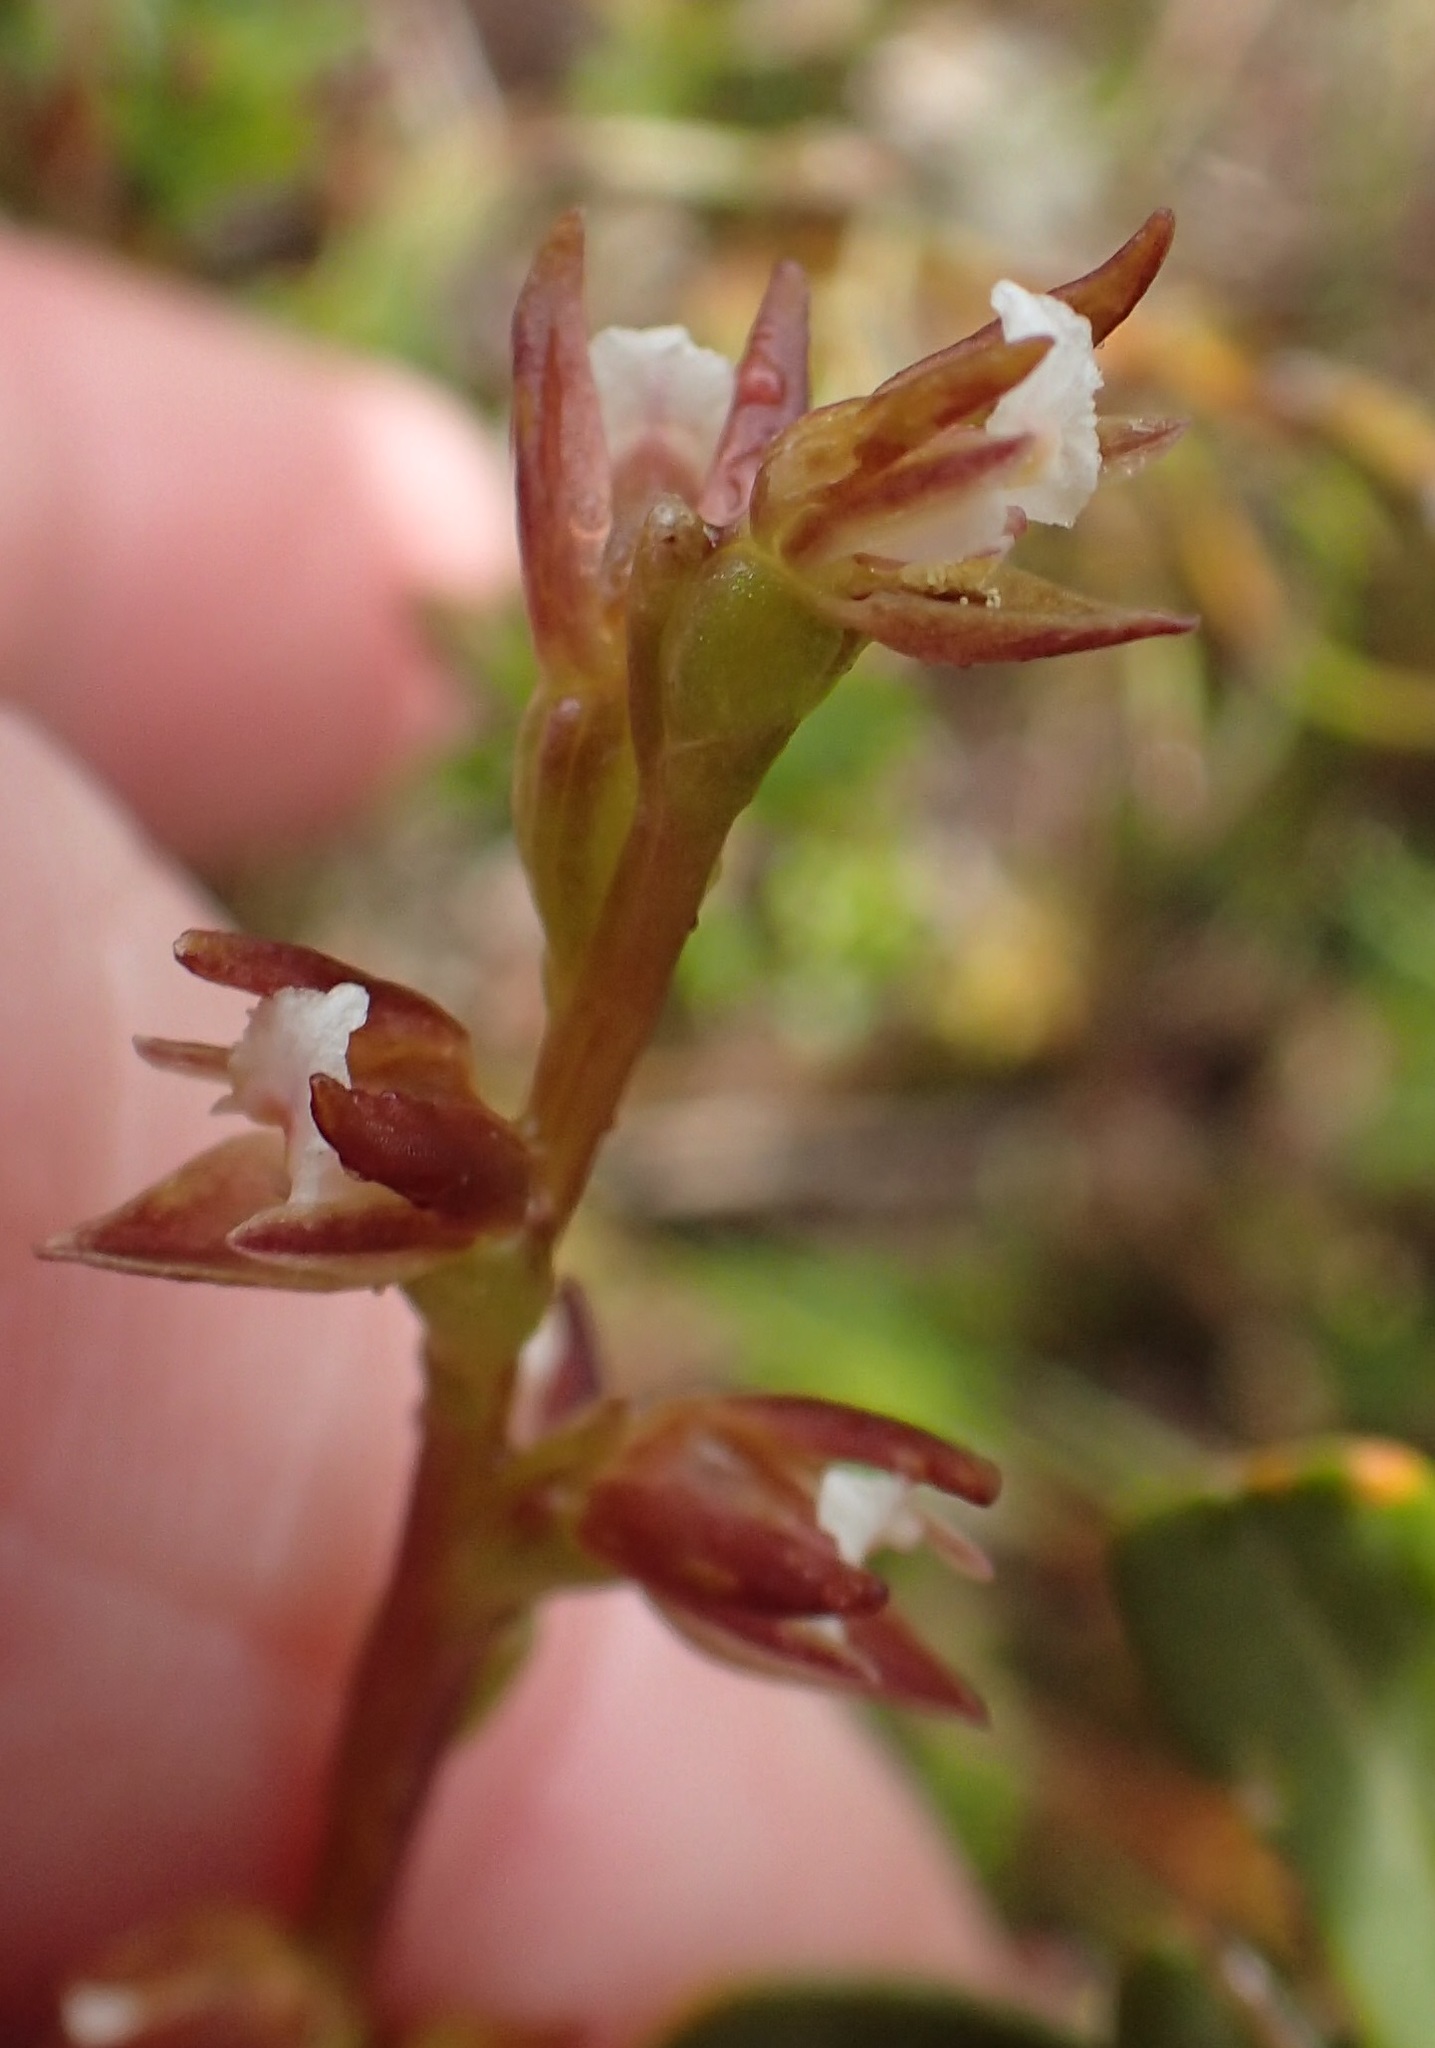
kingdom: Plantae
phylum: Tracheophyta
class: Liliopsida
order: Asparagales
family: Orchidaceae
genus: Prasophyllum
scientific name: Prasophyllum pulchellum
